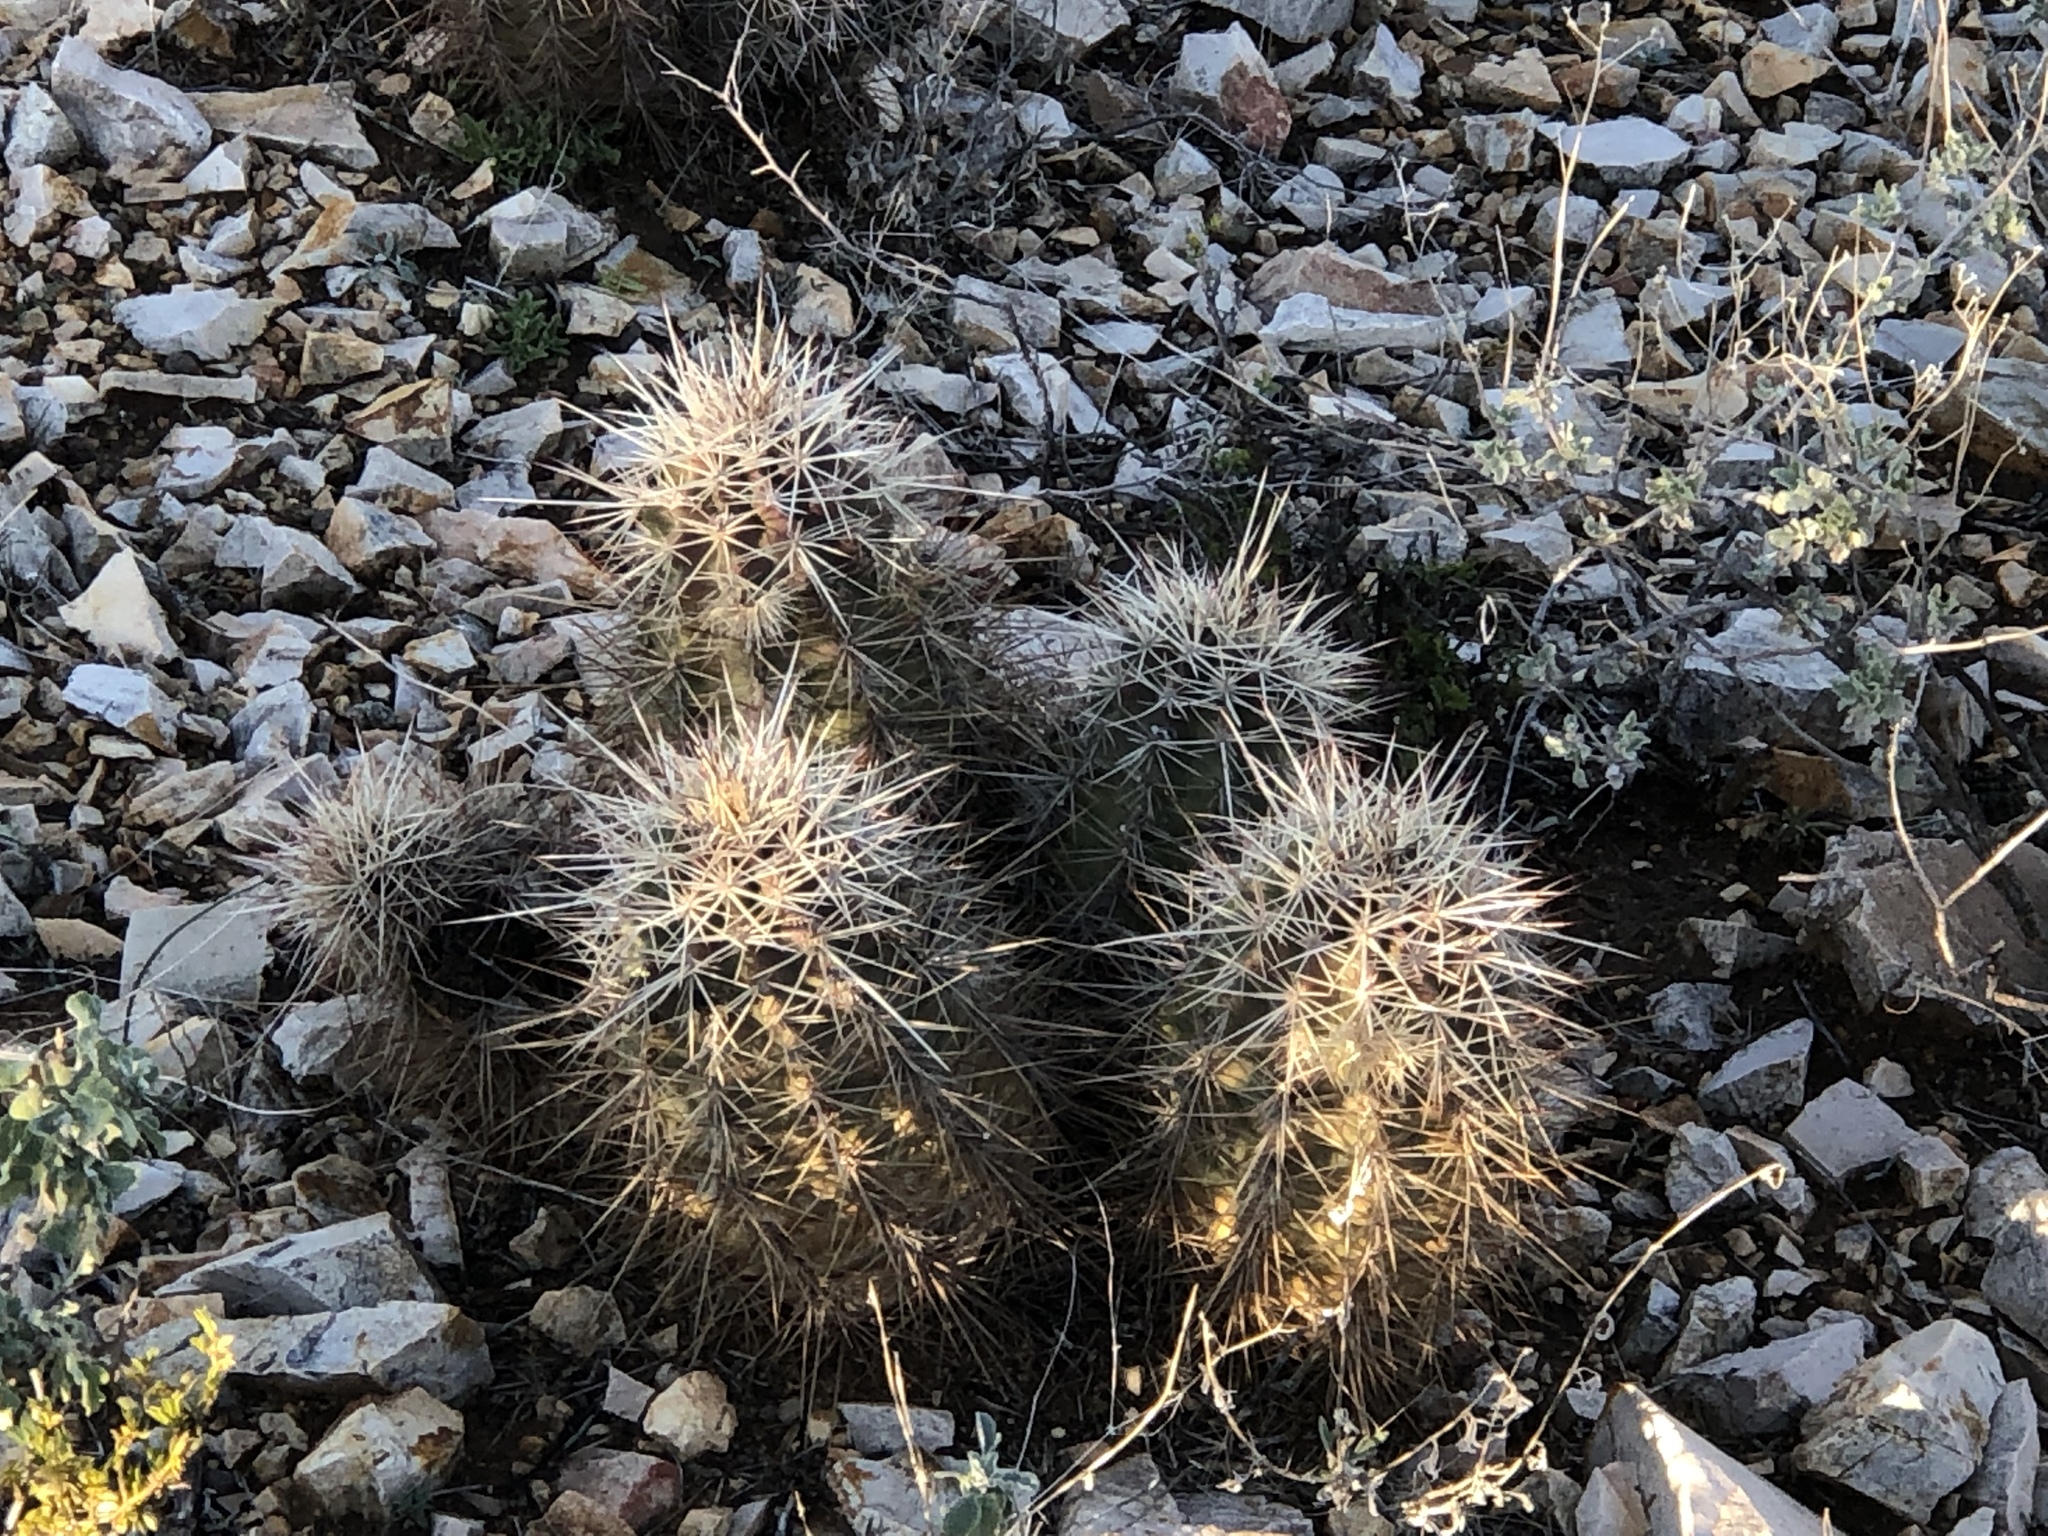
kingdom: Plantae
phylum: Tracheophyta
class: Magnoliopsida
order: Caryophyllales
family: Cactaceae
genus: Echinocereus
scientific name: Echinocereus coccineus
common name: Scarlet hedgehog cactus
